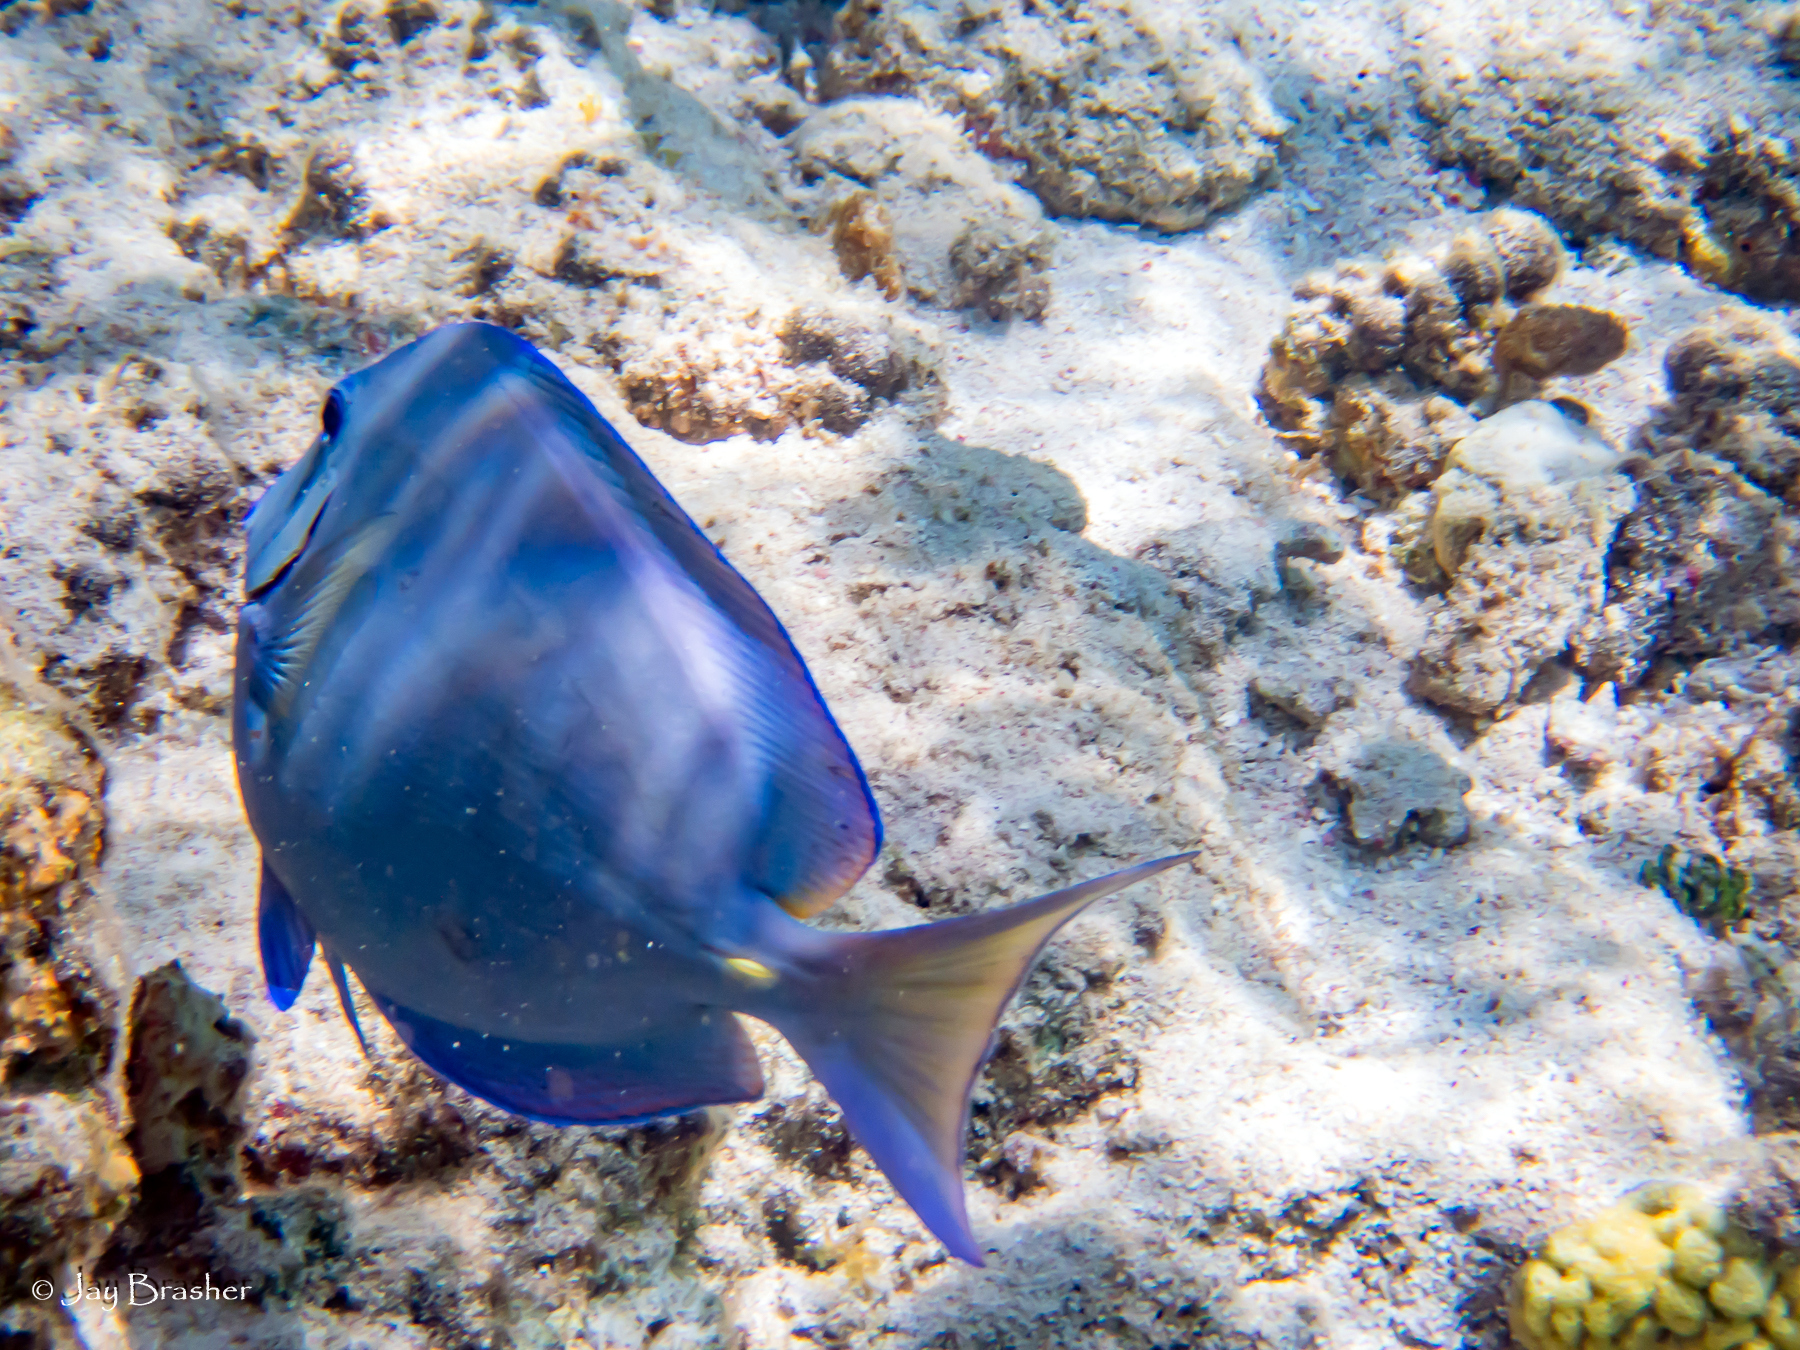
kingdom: Animalia
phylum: Chordata
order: Perciformes
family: Acanthuridae
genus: Acanthurus
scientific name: Acanthurus coeruleus
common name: Blue tang
